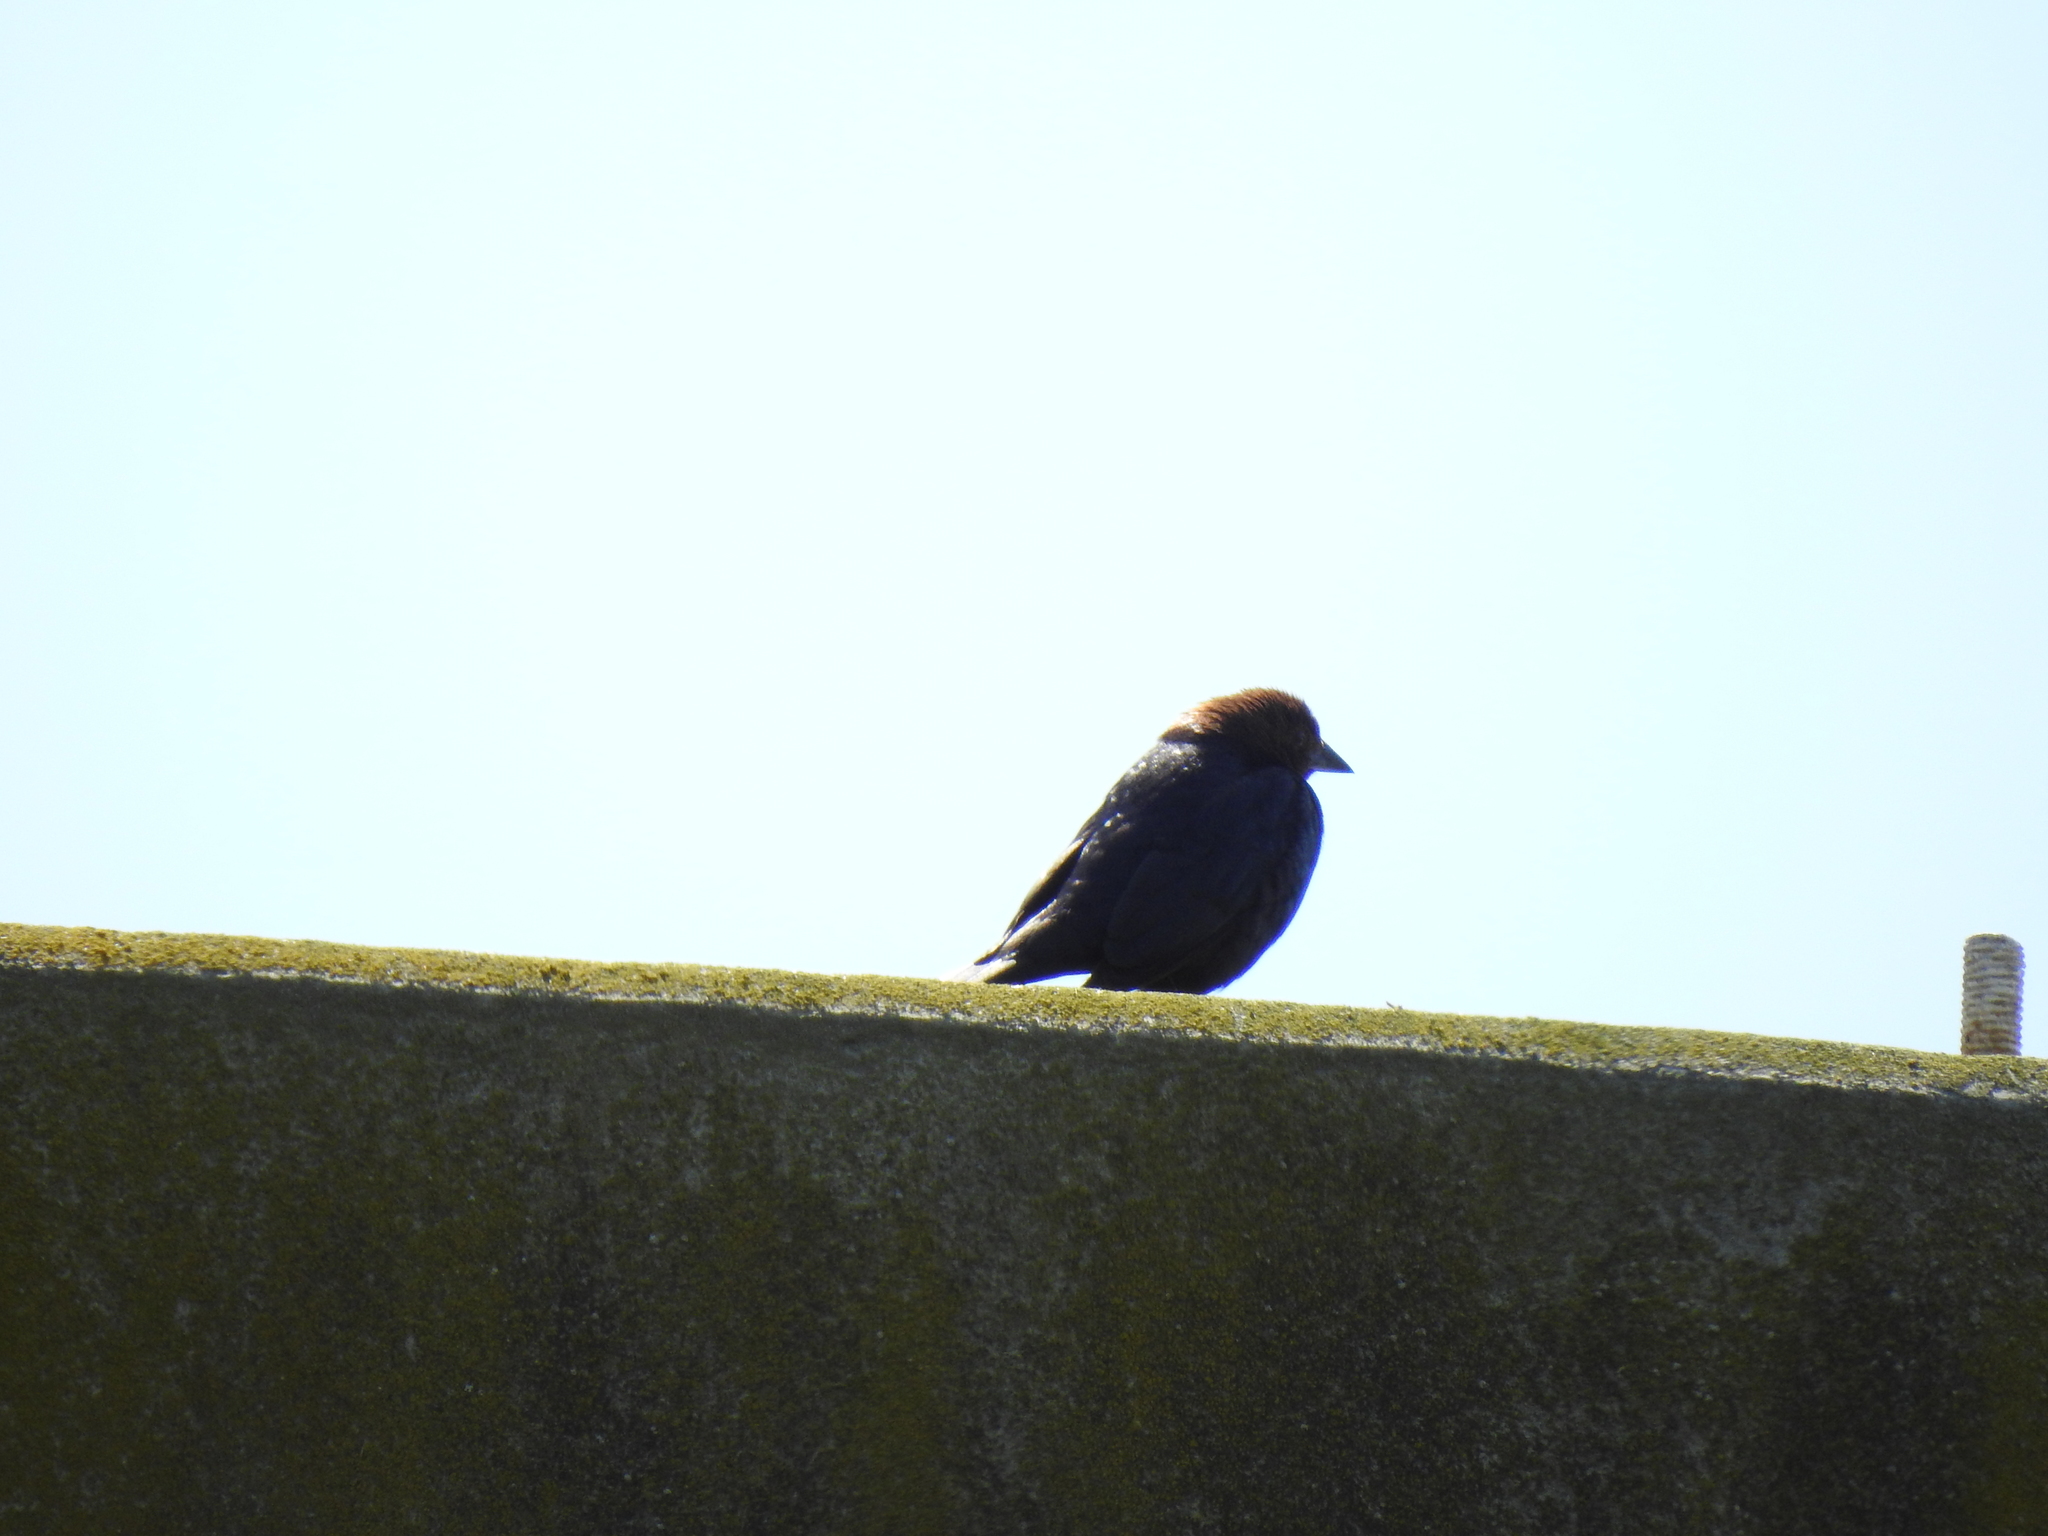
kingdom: Animalia
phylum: Chordata
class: Aves
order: Passeriformes
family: Icteridae
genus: Molothrus
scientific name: Molothrus ater
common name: Brown-headed cowbird
